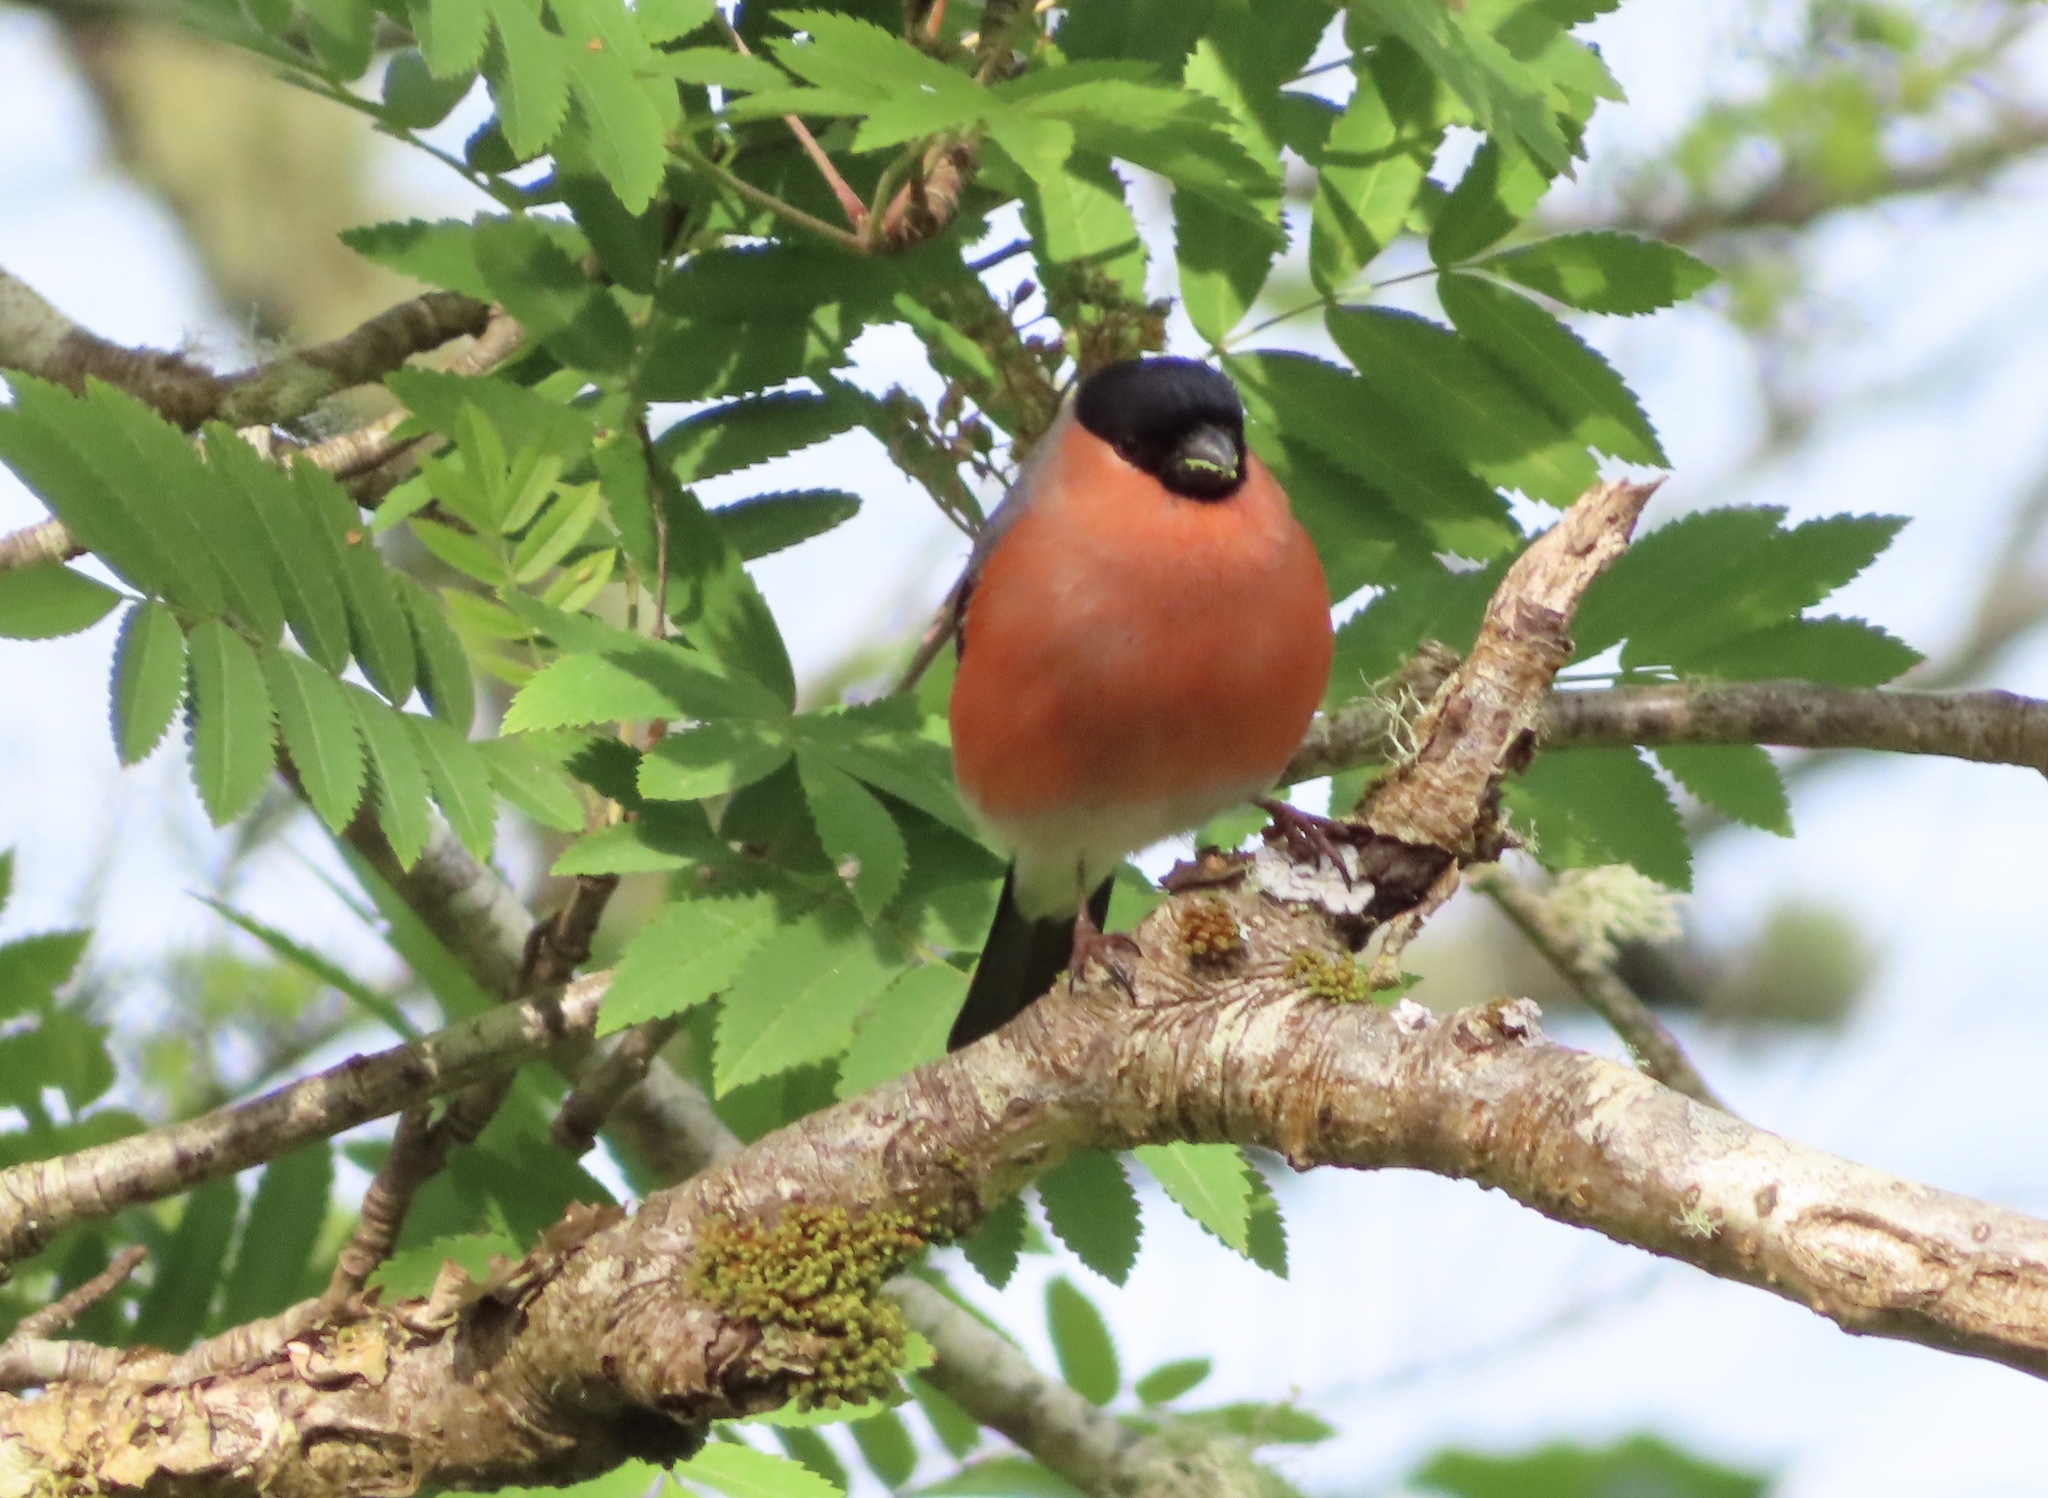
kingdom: Animalia
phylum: Chordata
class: Aves
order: Passeriformes
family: Fringillidae
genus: Pyrrhula
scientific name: Pyrrhula pyrrhula
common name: Eurasian bullfinch
